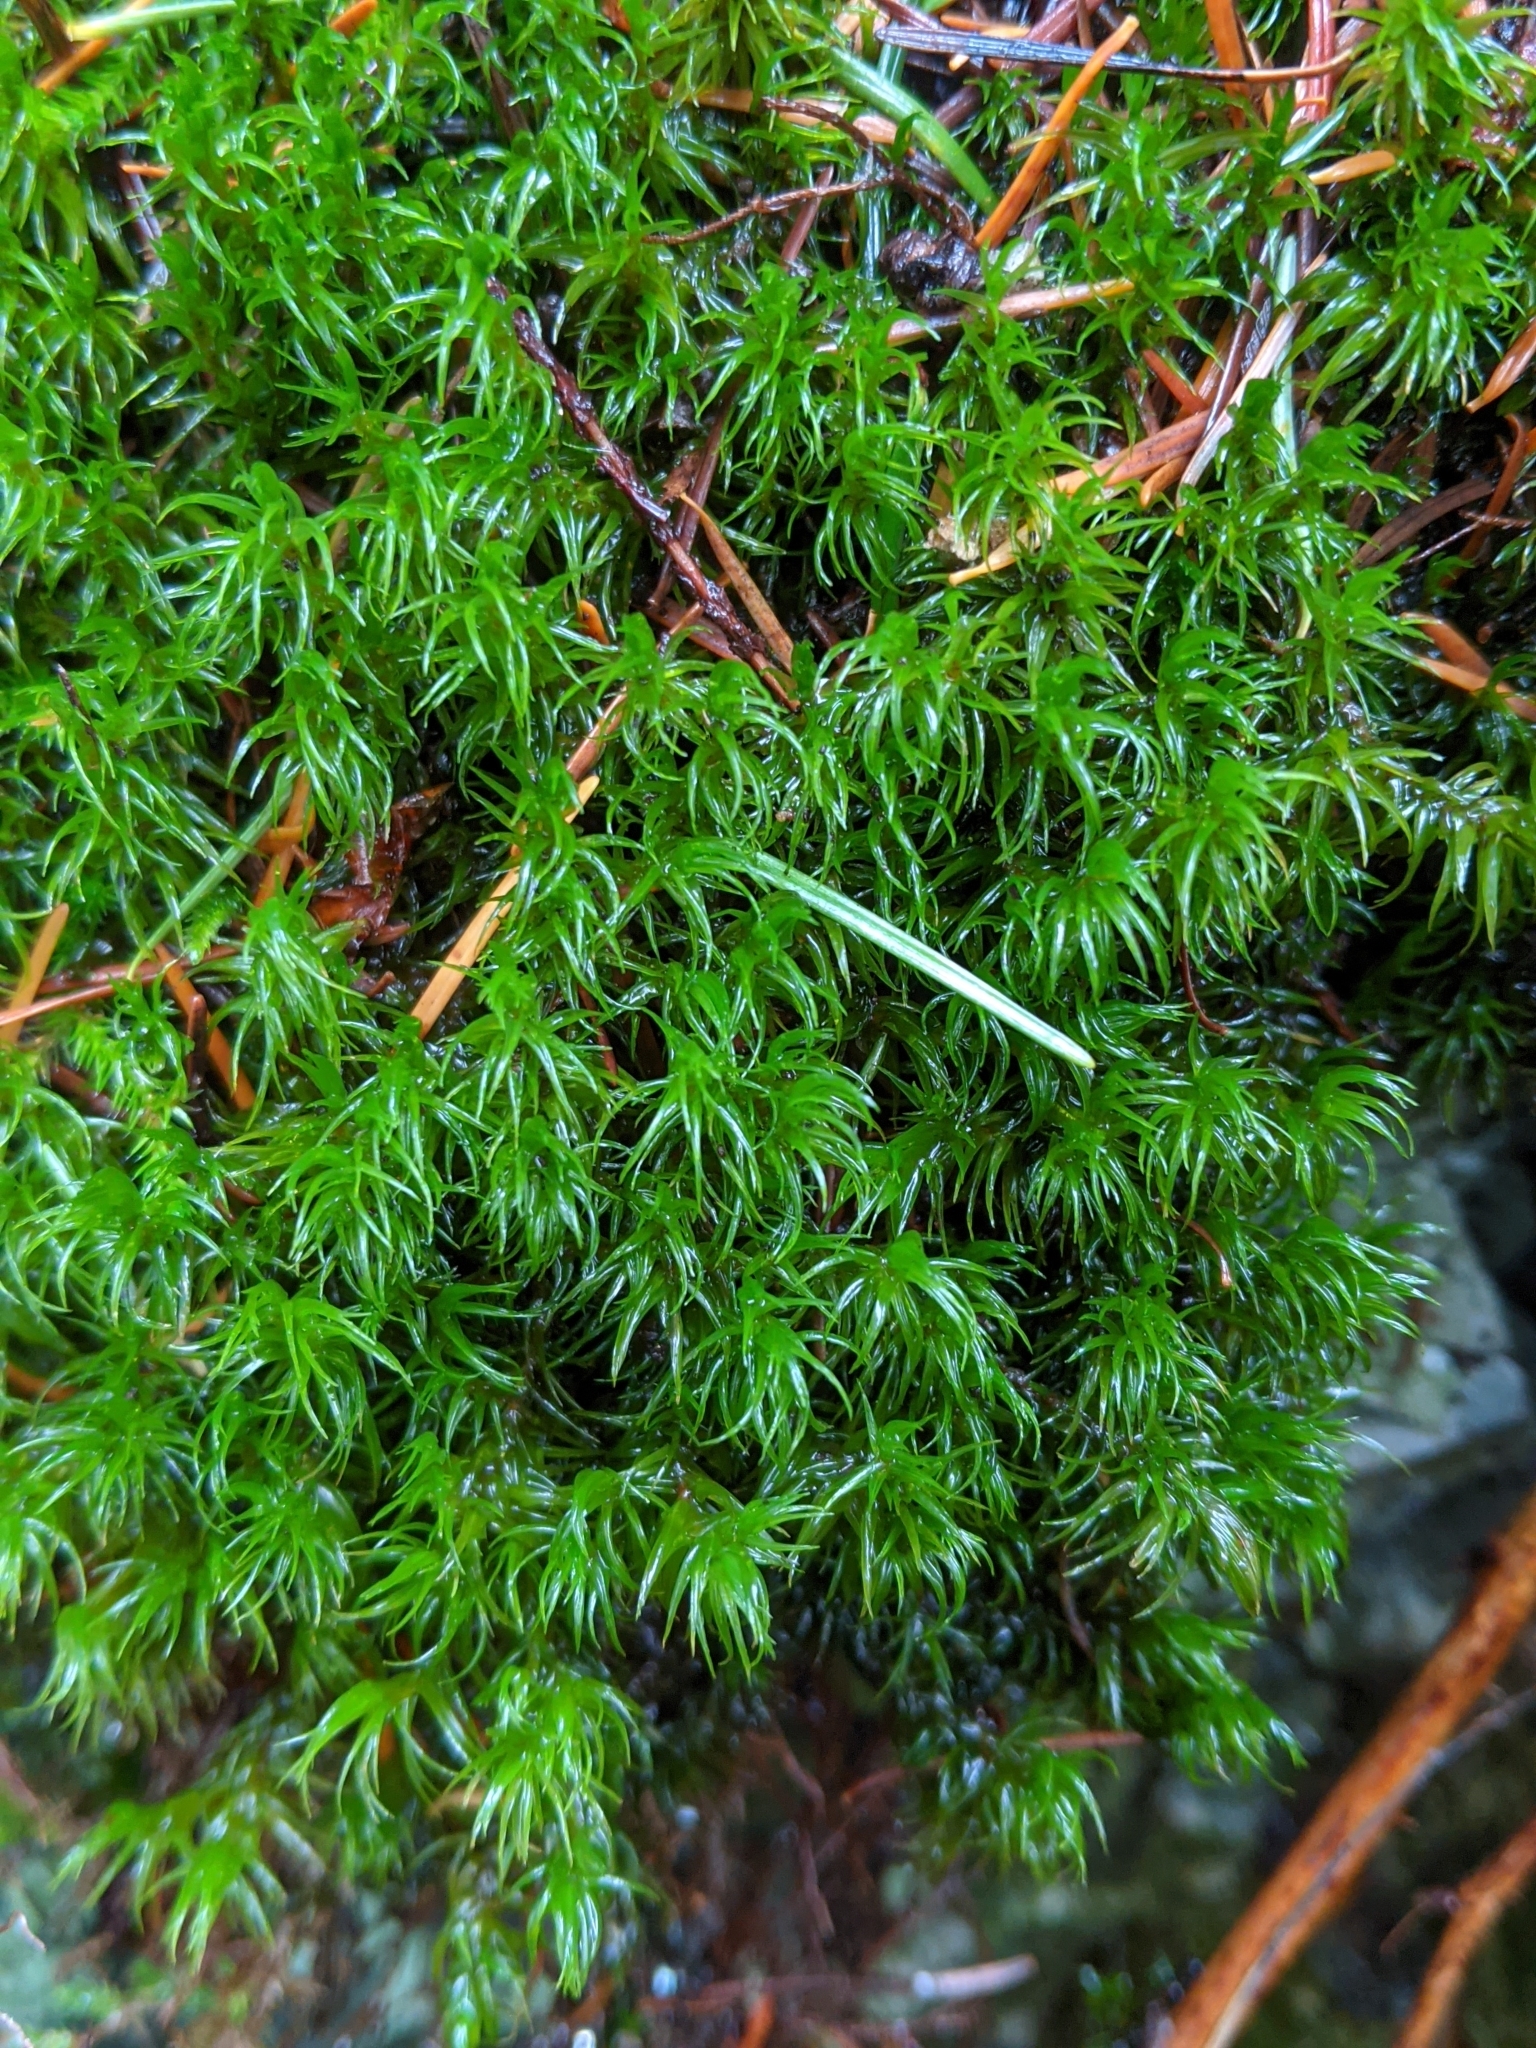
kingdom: Plantae
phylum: Bryophyta
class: Bryopsida
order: Dicranales
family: Dicranaceae
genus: Dicranum
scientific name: Dicranum scoparium
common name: Broom fork-moss
